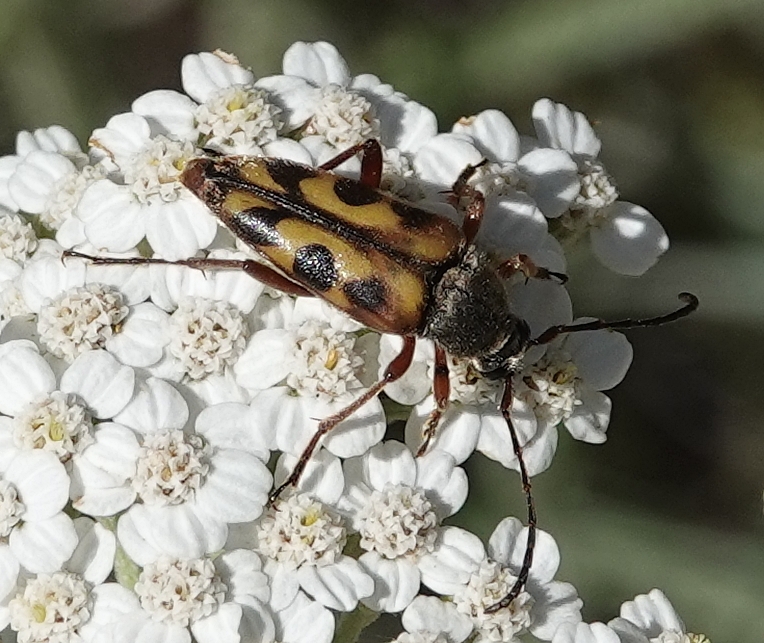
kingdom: Animalia
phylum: Arthropoda
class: Insecta
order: Coleoptera
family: Cerambycidae
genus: Typocerus
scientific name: Typocerus octonotatus
